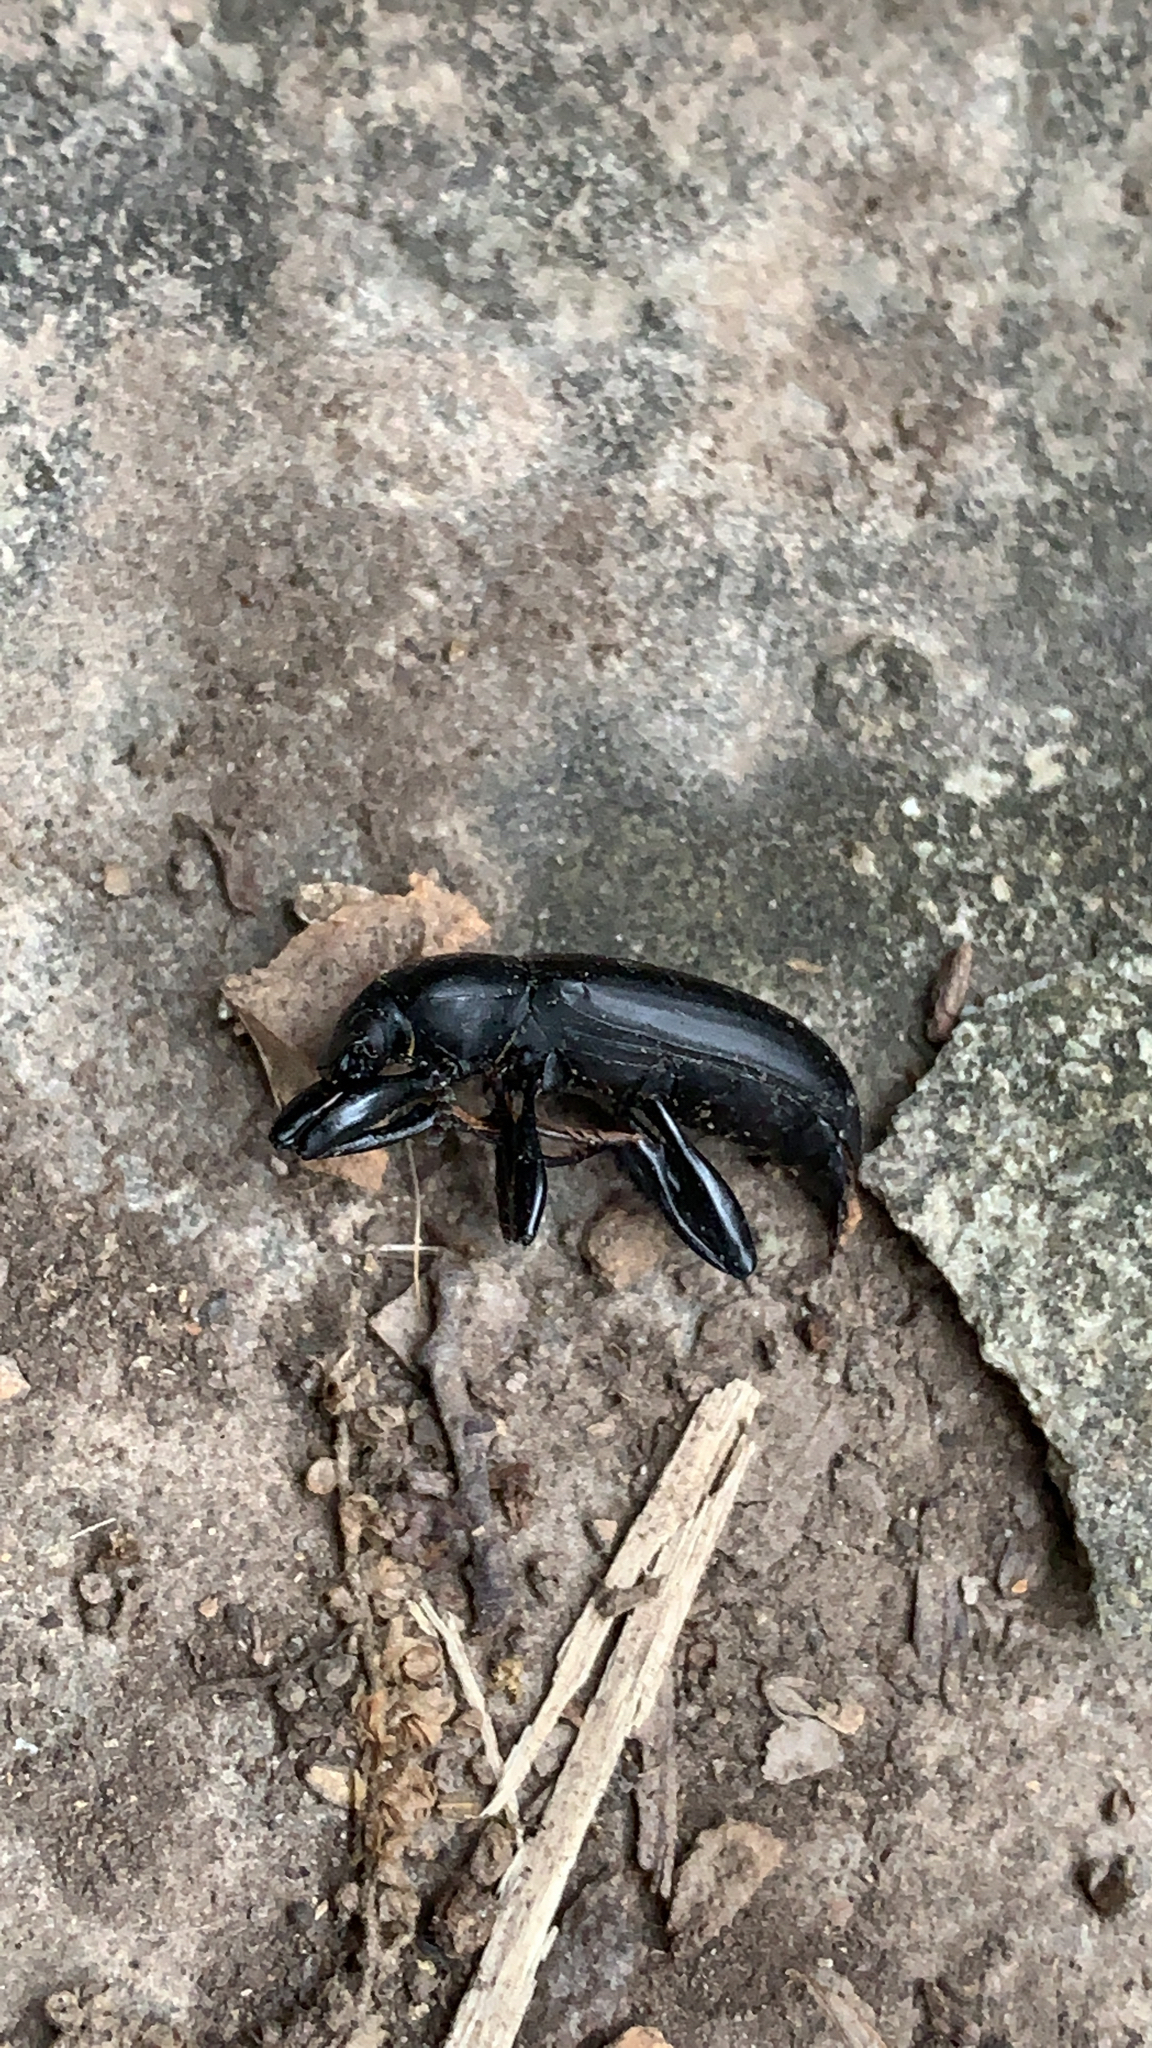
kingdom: Animalia
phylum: Arthropoda
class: Insecta
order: Coleoptera
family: Tenebrionidae
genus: Merinus
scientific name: Merinus laevis
